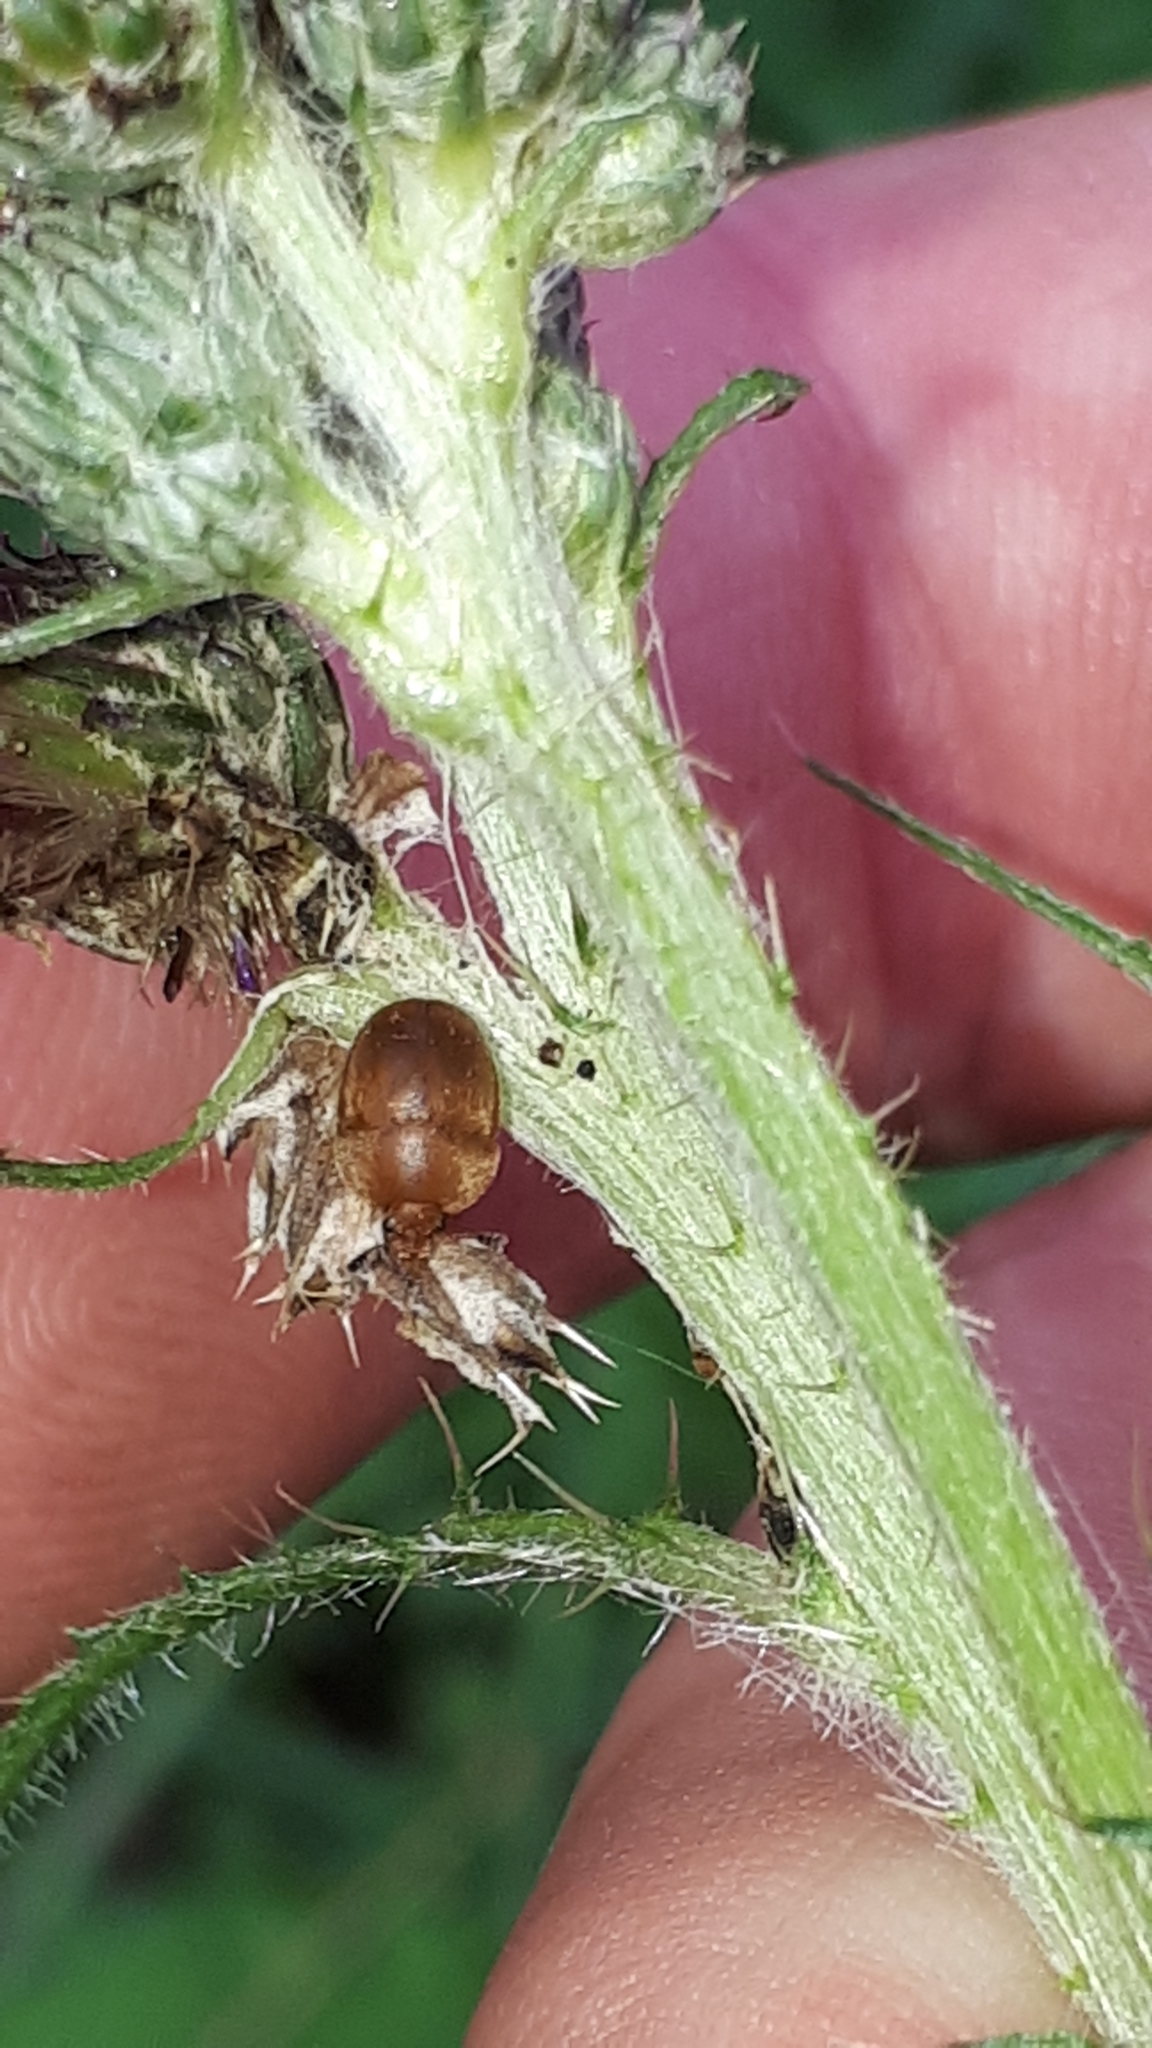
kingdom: Animalia
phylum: Arthropoda
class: Insecta
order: Coleoptera
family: Nitidulidae
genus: Cychramus
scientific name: Cychramus luteus
